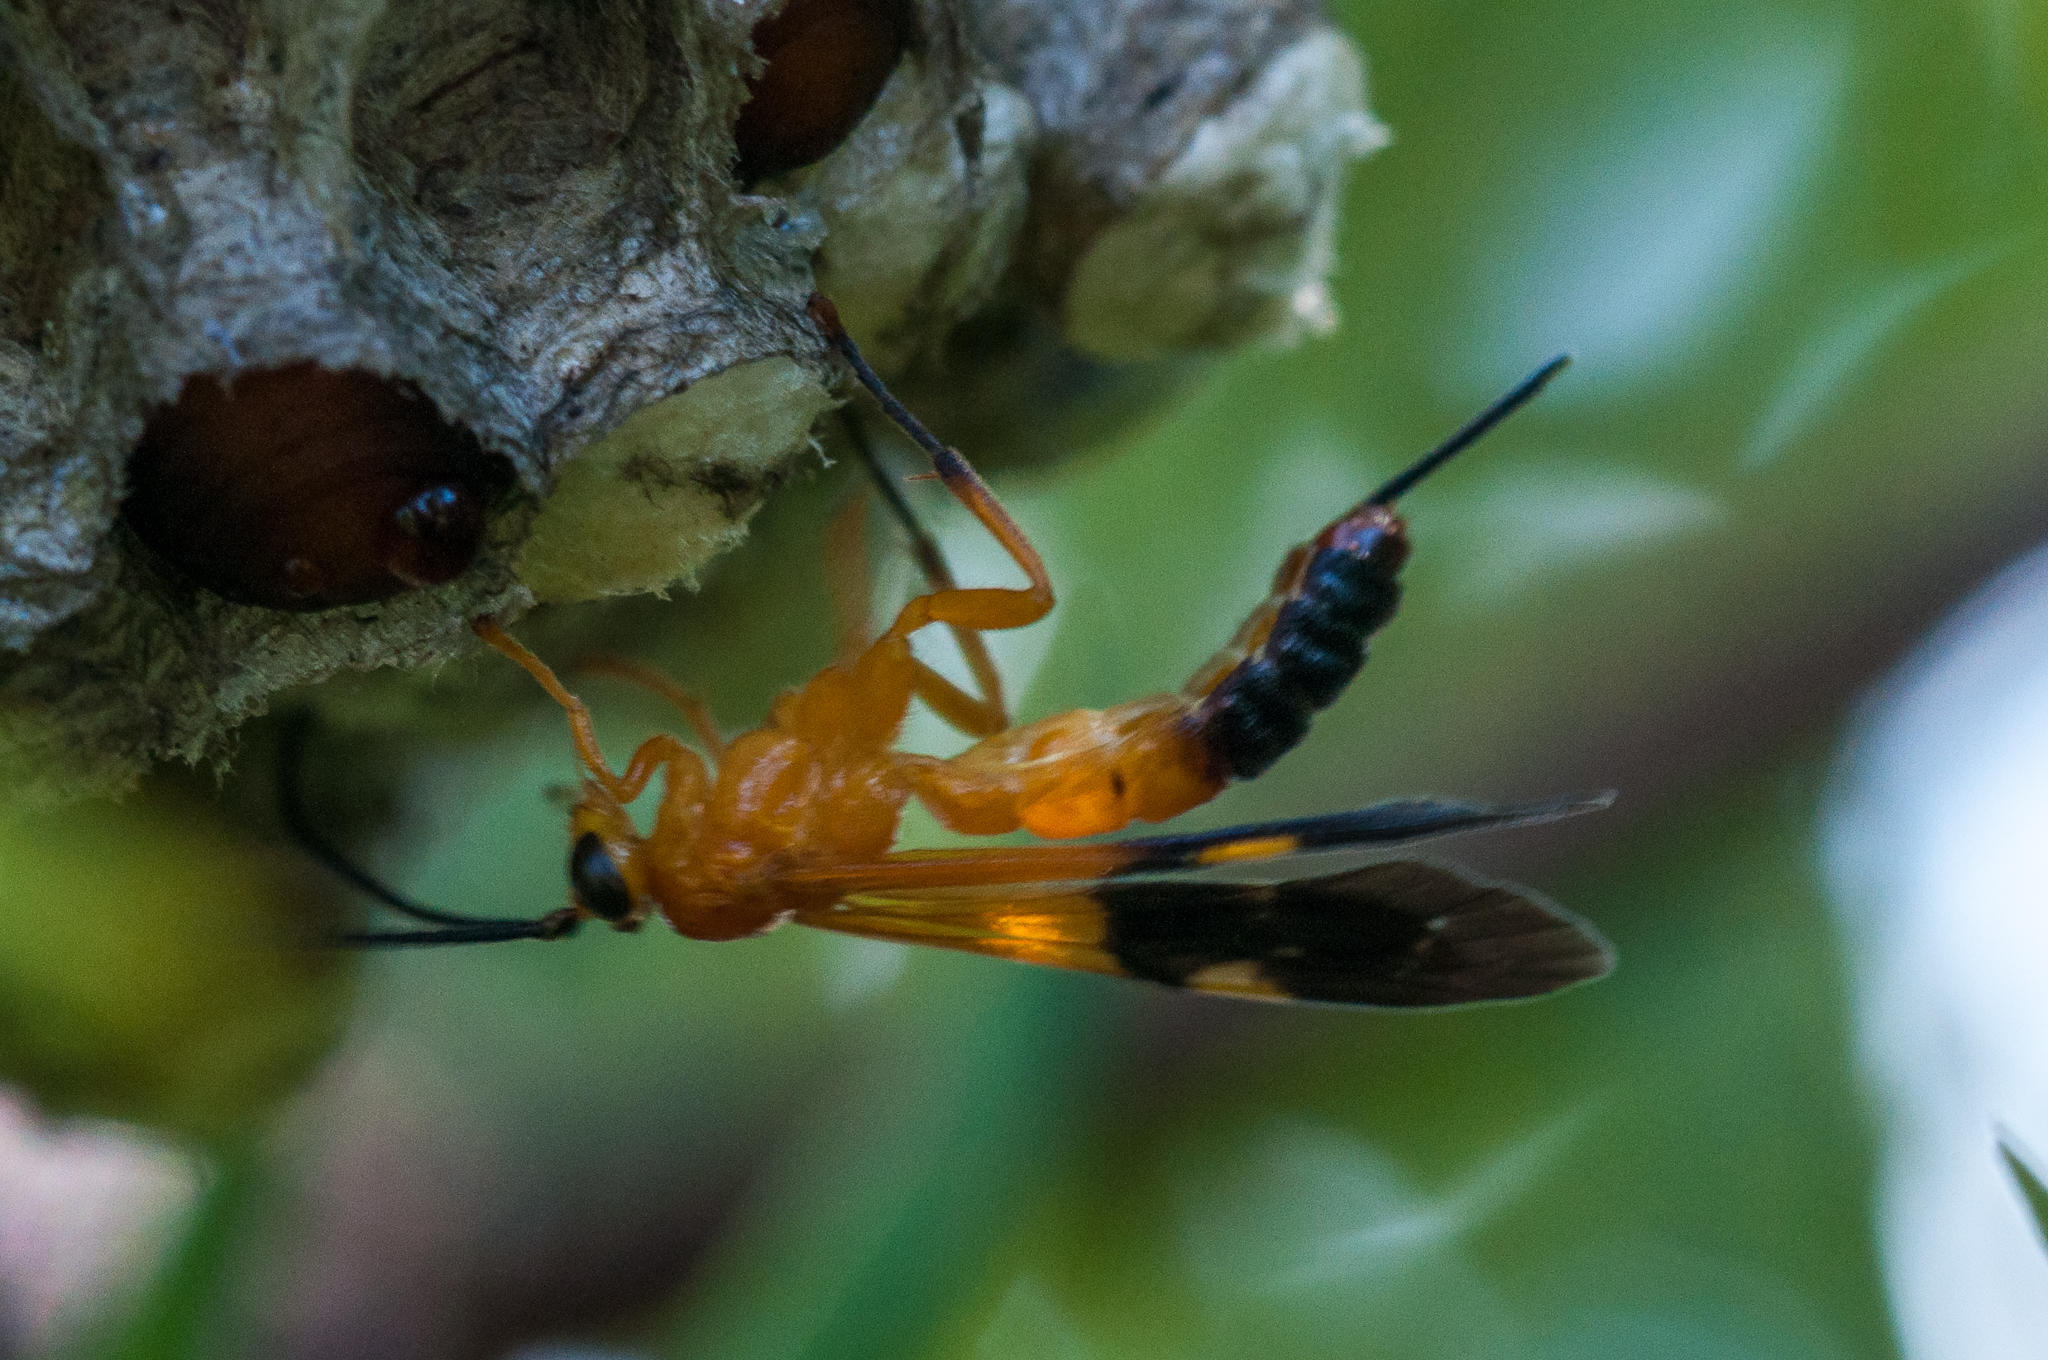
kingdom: Animalia
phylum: Arthropoda
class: Insecta
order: Hymenoptera
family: Ichneumonidae
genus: Camptotypus
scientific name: Camptotypus divisus
